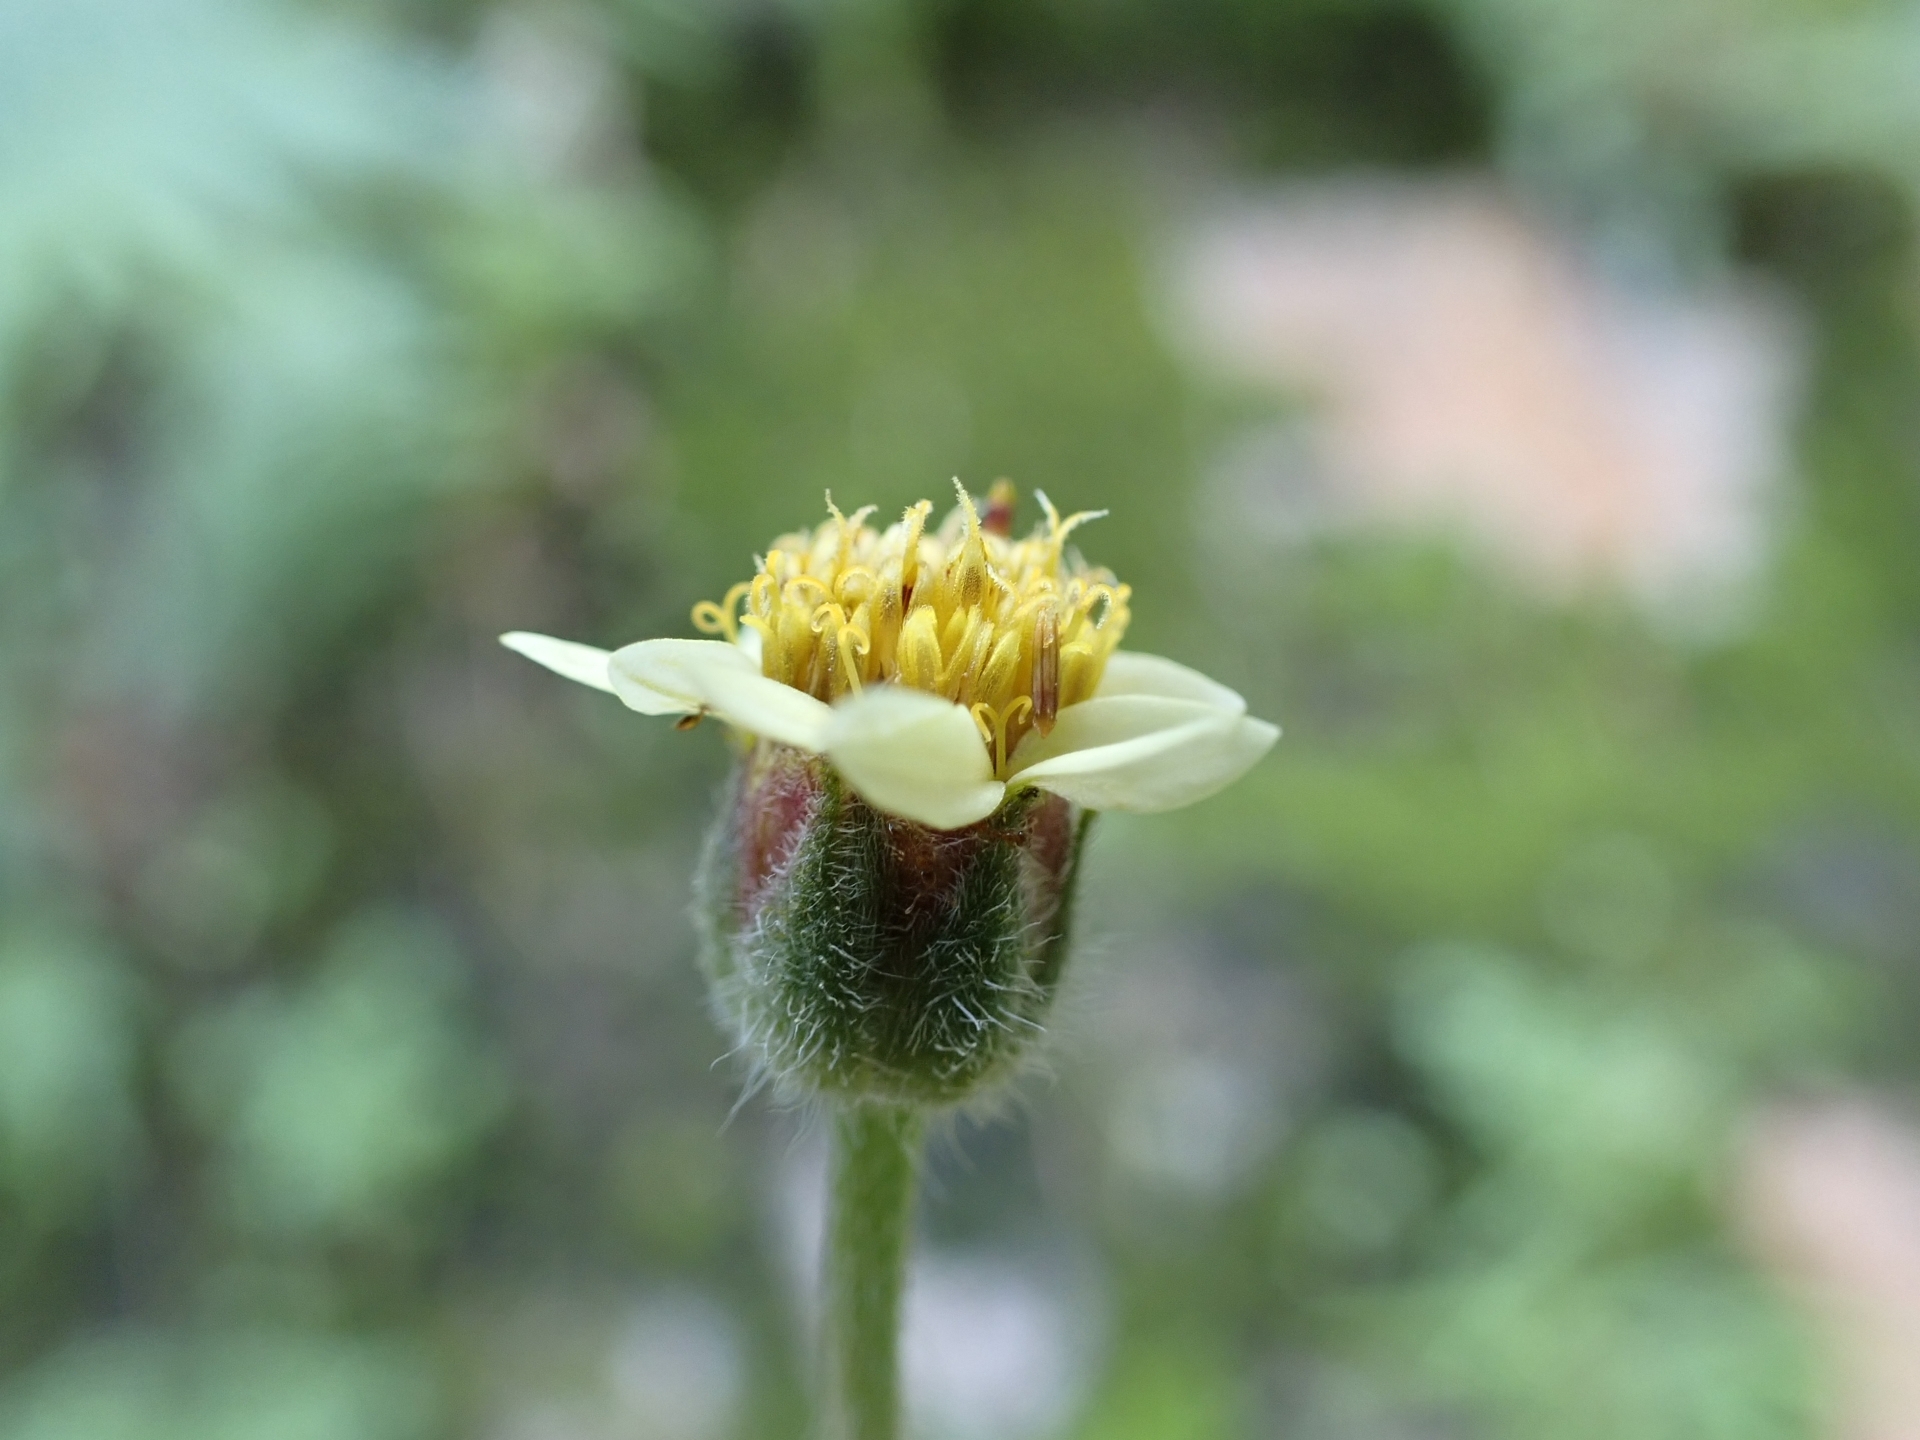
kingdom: Plantae
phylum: Tracheophyta
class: Magnoliopsida
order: Asterales
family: Asteraceae
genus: Tridax
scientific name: Tridax procumbens
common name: Coatbuttons
